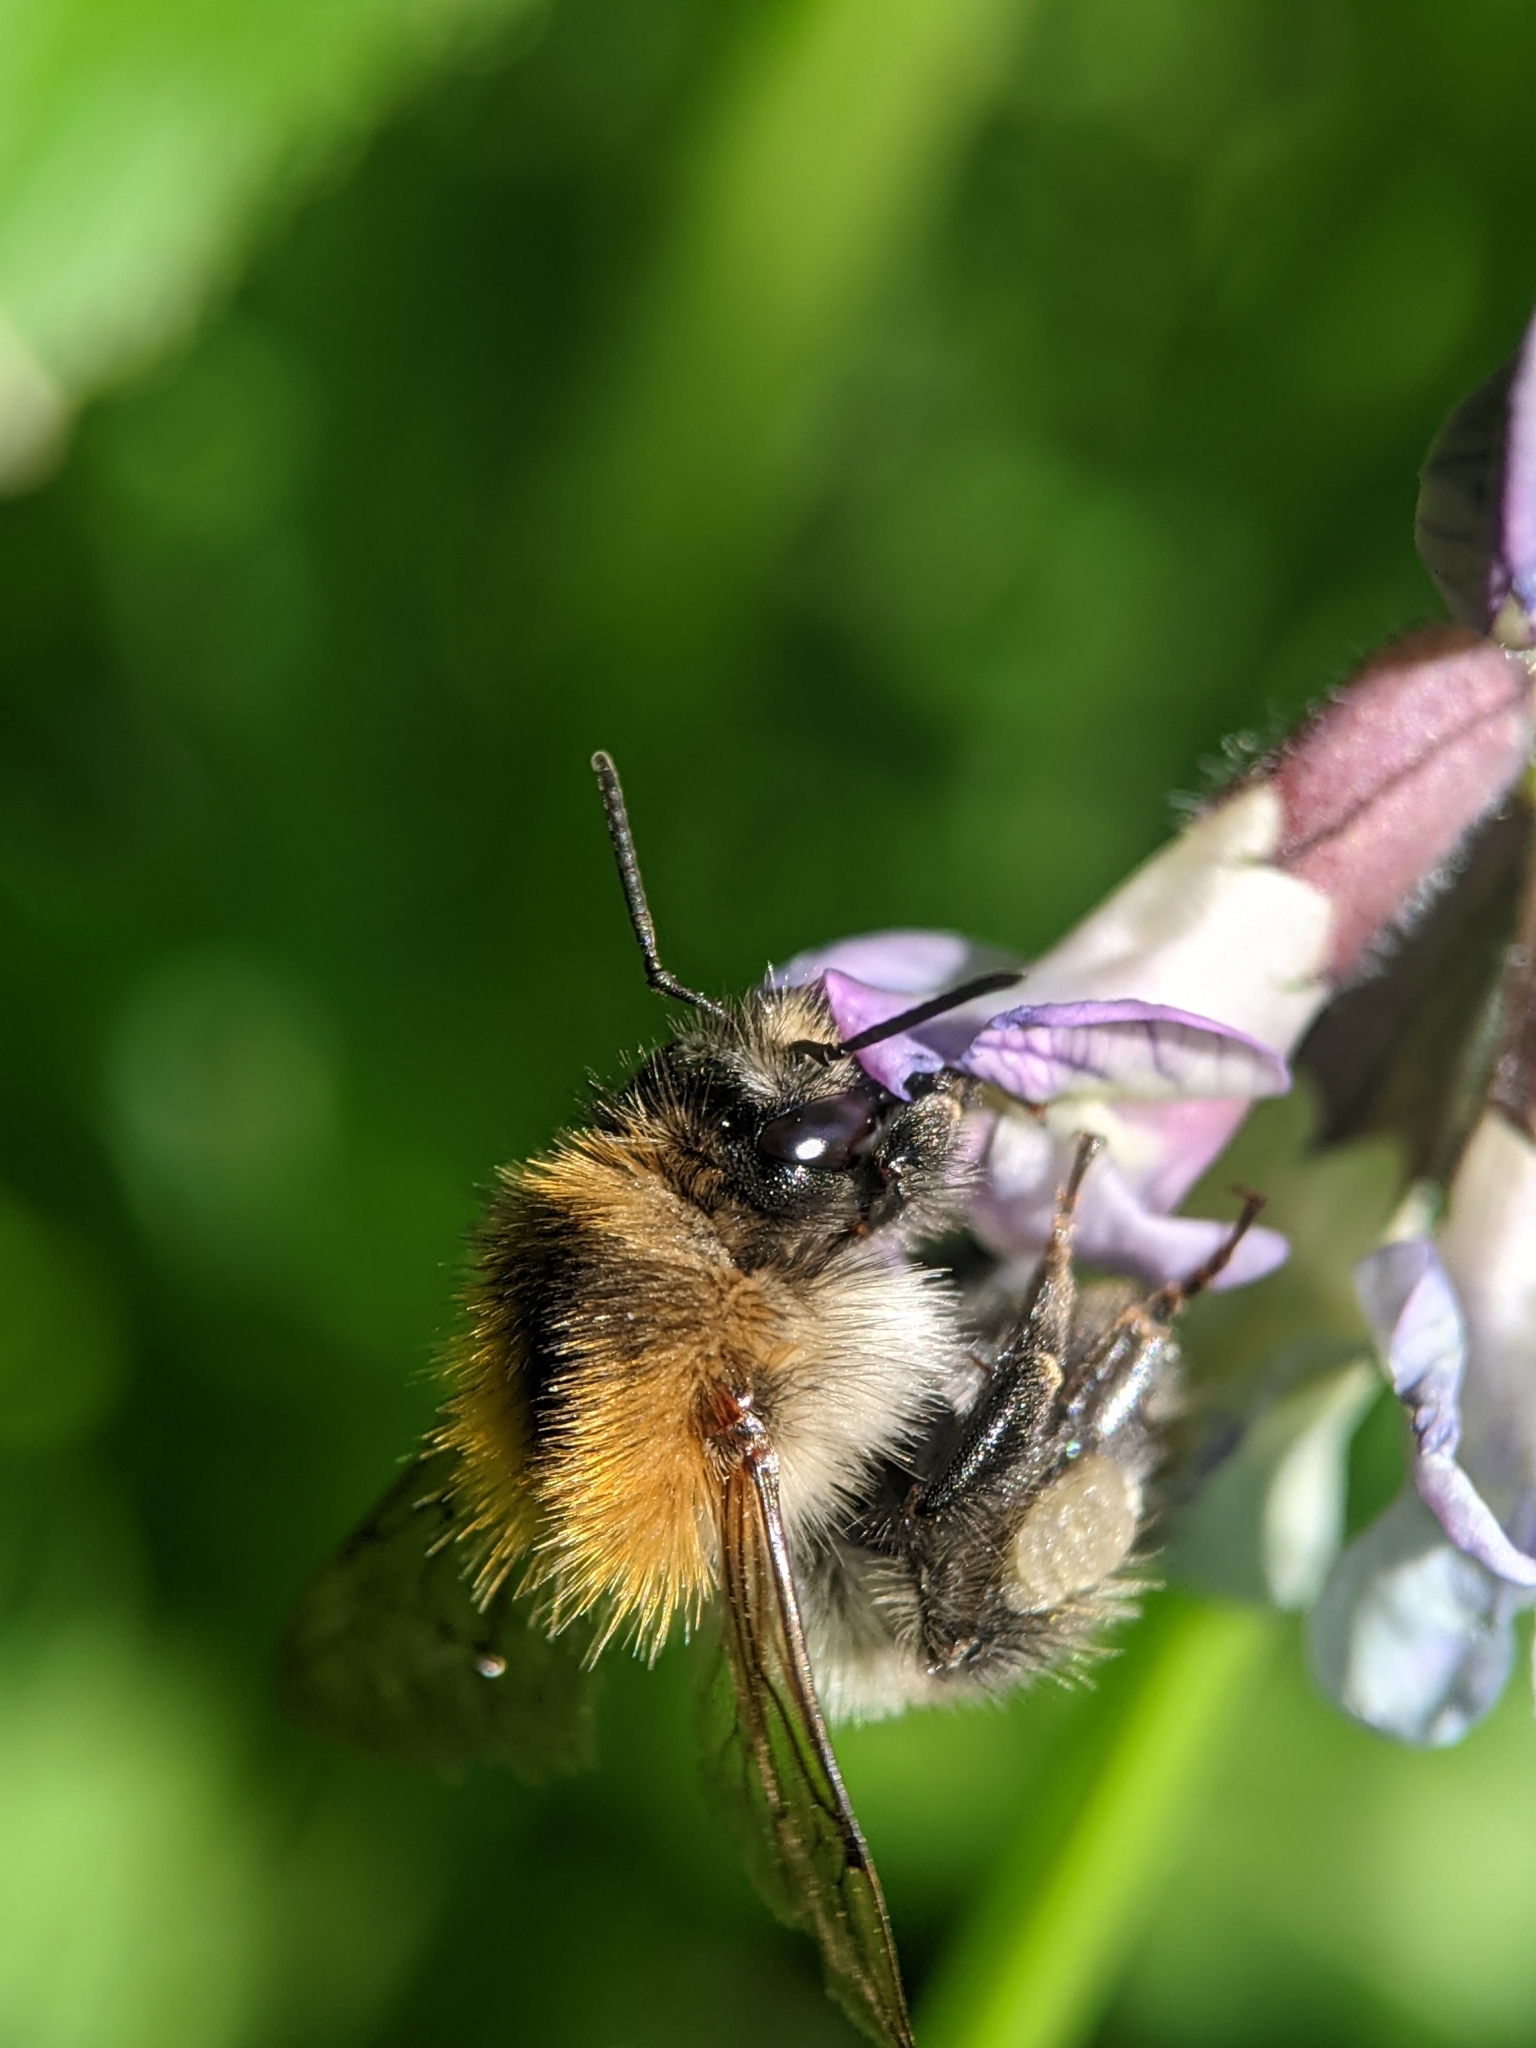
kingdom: Animalia
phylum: Arthropoda
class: Insecta
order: Hymenoptera
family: Apidae
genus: Bombus
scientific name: Bombus pascuorum
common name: Common carder bee
